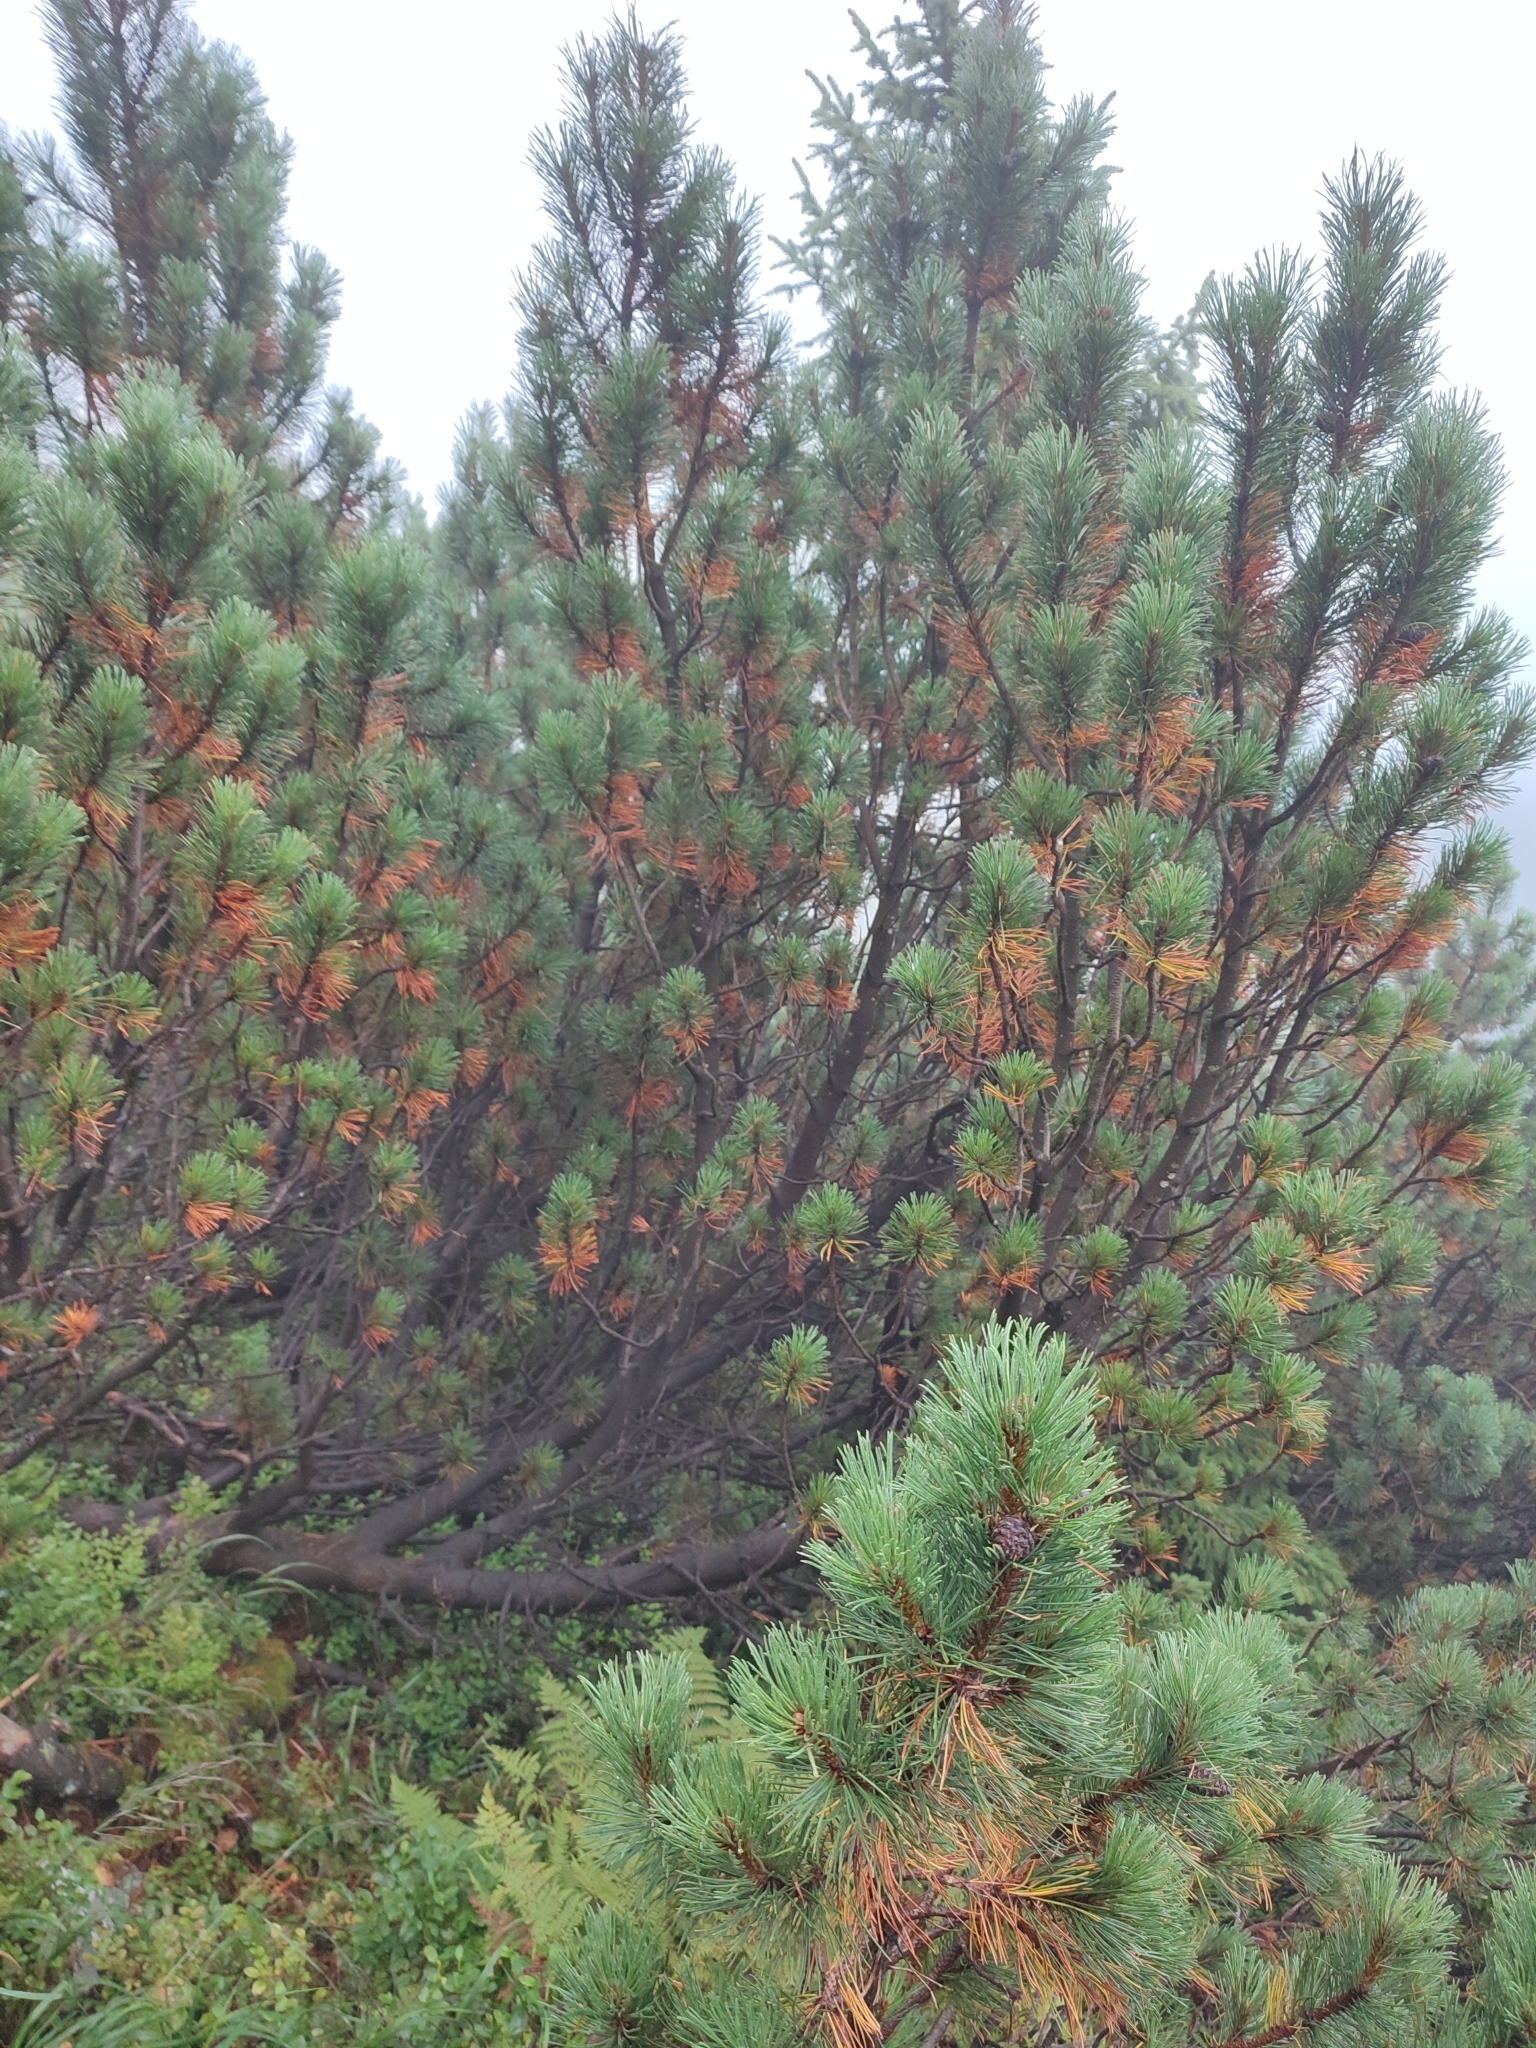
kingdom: Plantae
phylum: Tracheophyta
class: Pinopsida
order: Pinales
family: Pinaceae
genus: Pinus
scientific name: Pinus mugo
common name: Mugo pine
